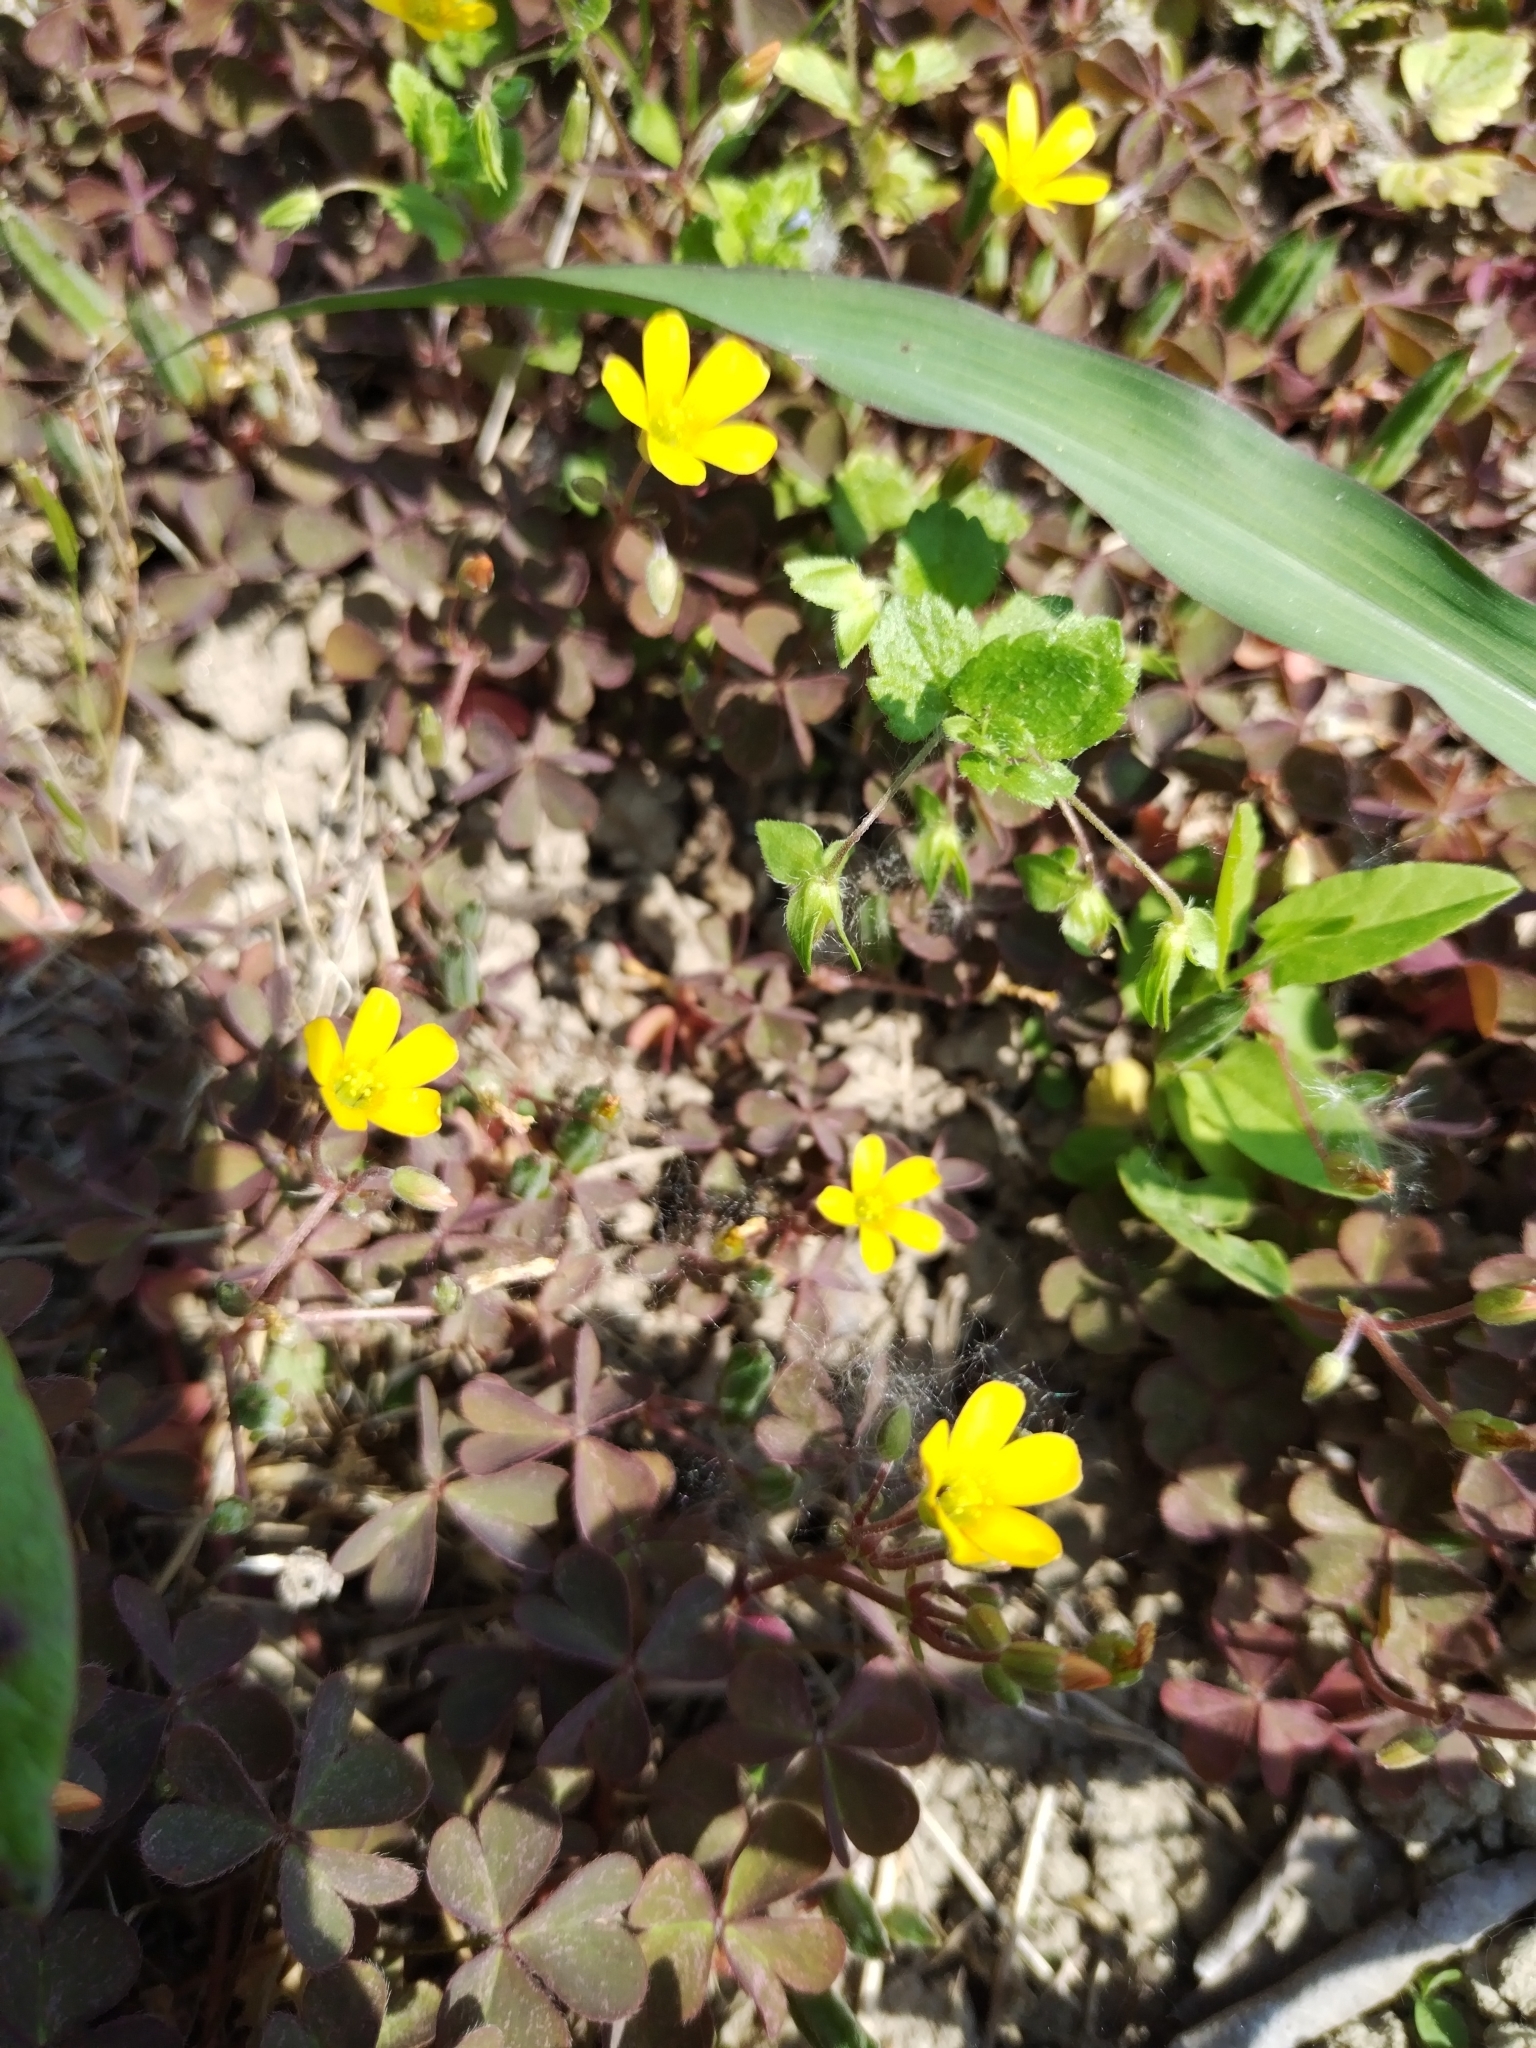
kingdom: Plantae
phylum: Tracheophyta
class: Magnoliopsida
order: Oxalidales
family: Oxalidaceae
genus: Oxalis
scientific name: Oxalis corniculata
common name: Procumbent yellow-sorrel
